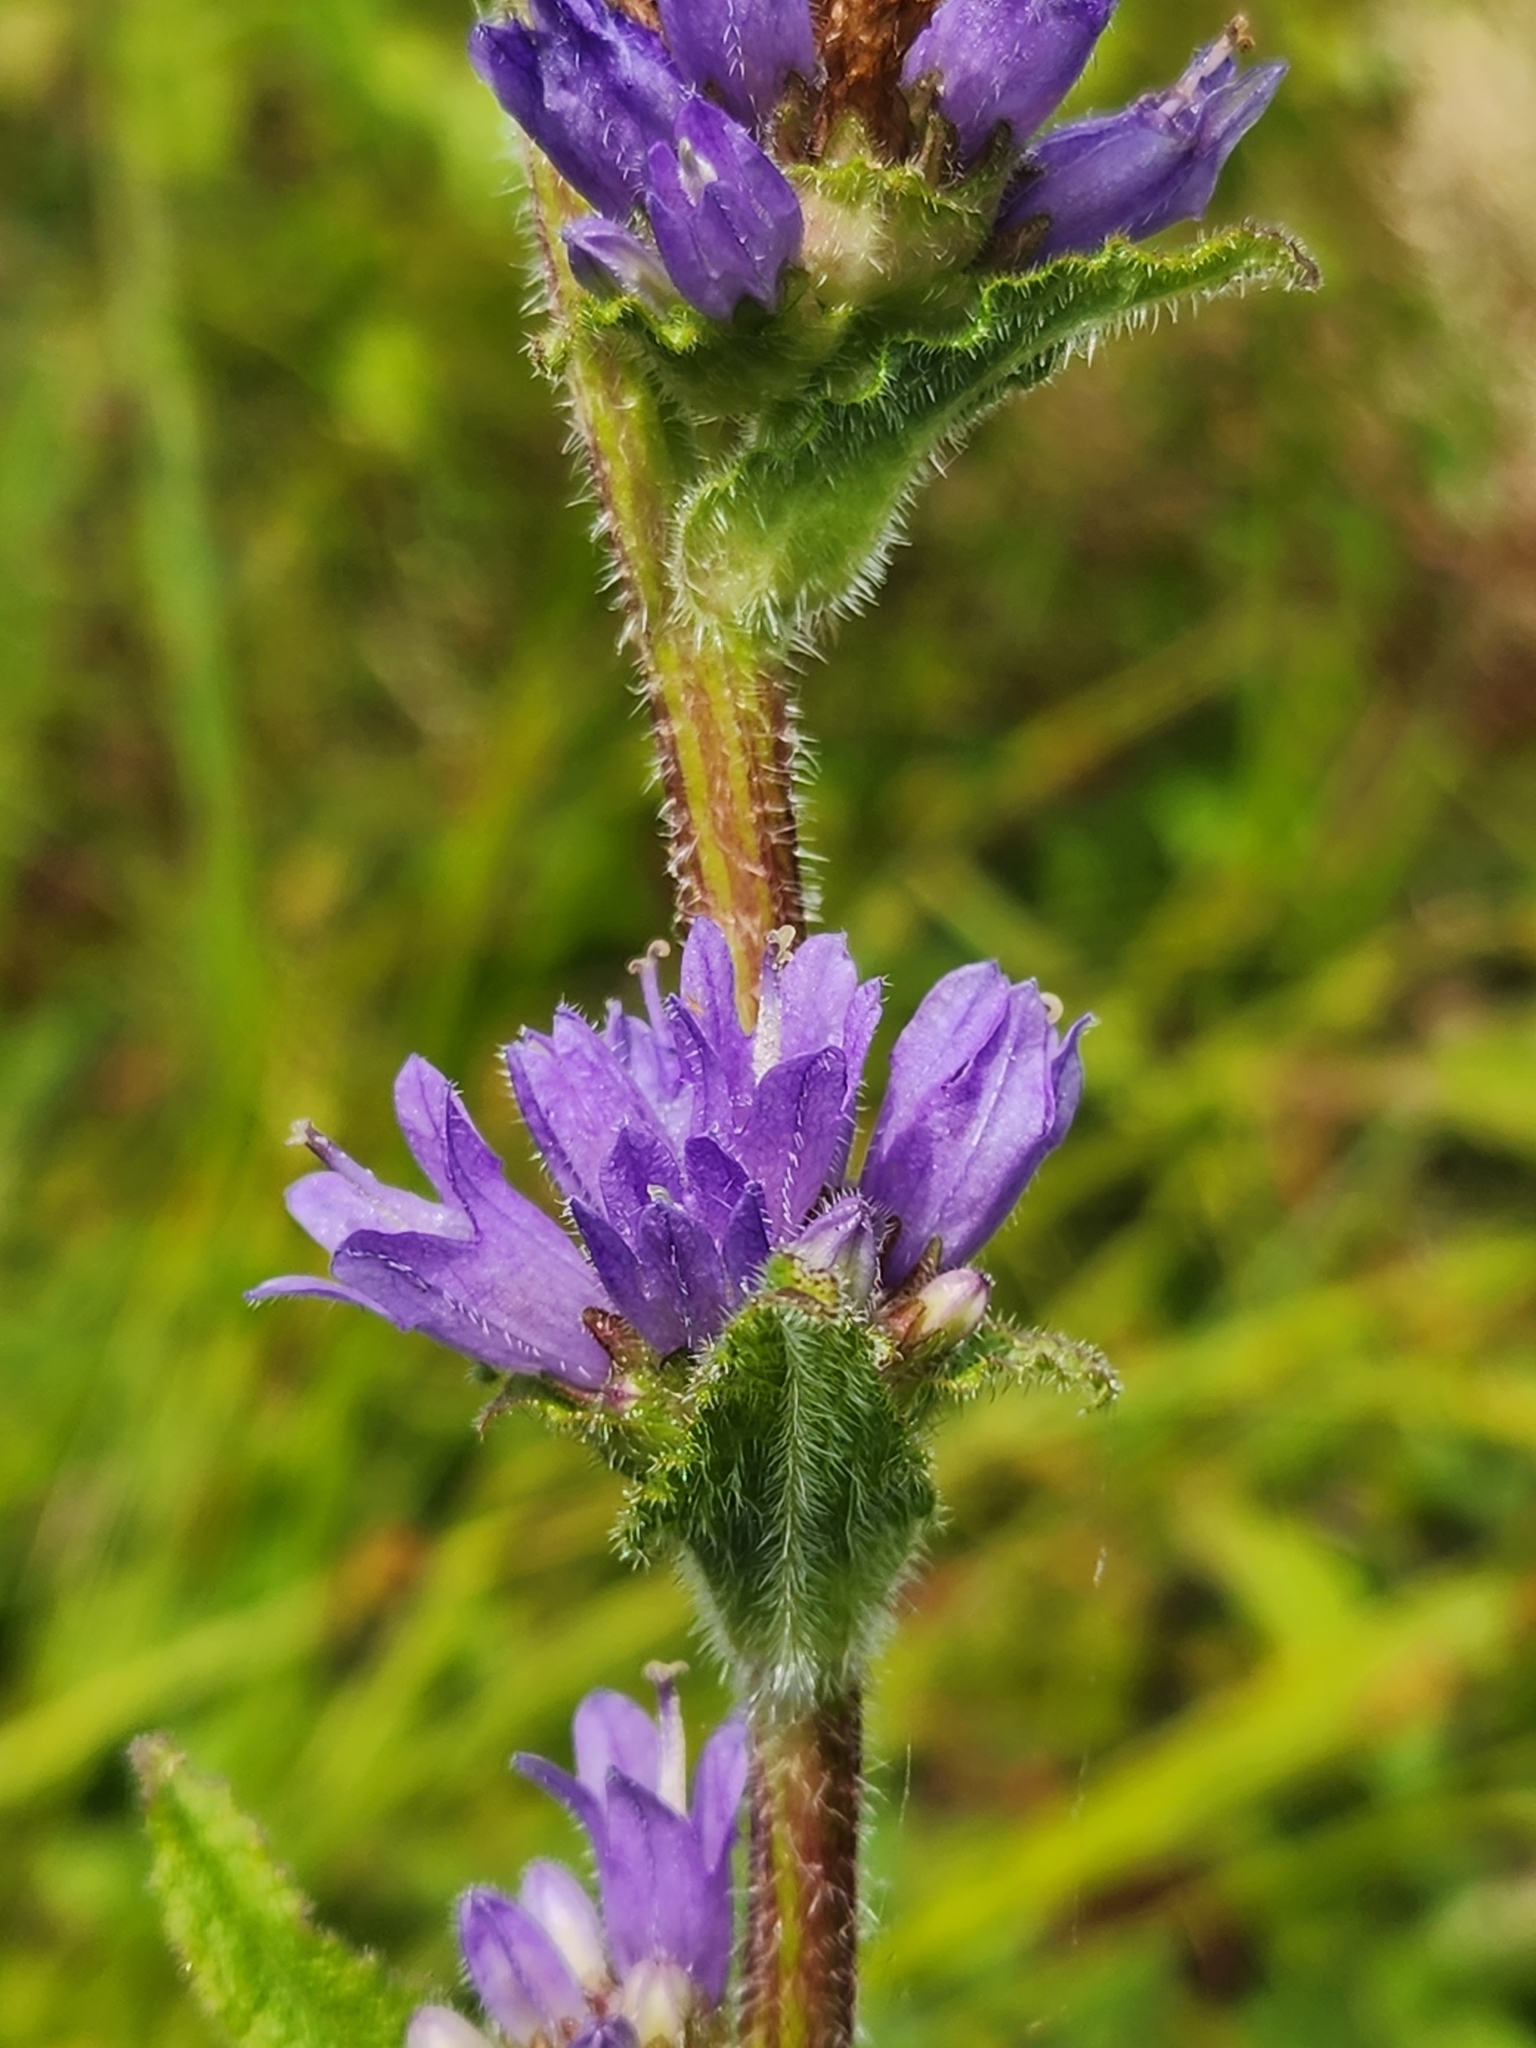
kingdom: Plantae
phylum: Tracheophyta
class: Magnoliopsida
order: Asterales
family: Campanulaceae
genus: Campanula
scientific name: Campanula cervicaria
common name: Bristly bellflower
